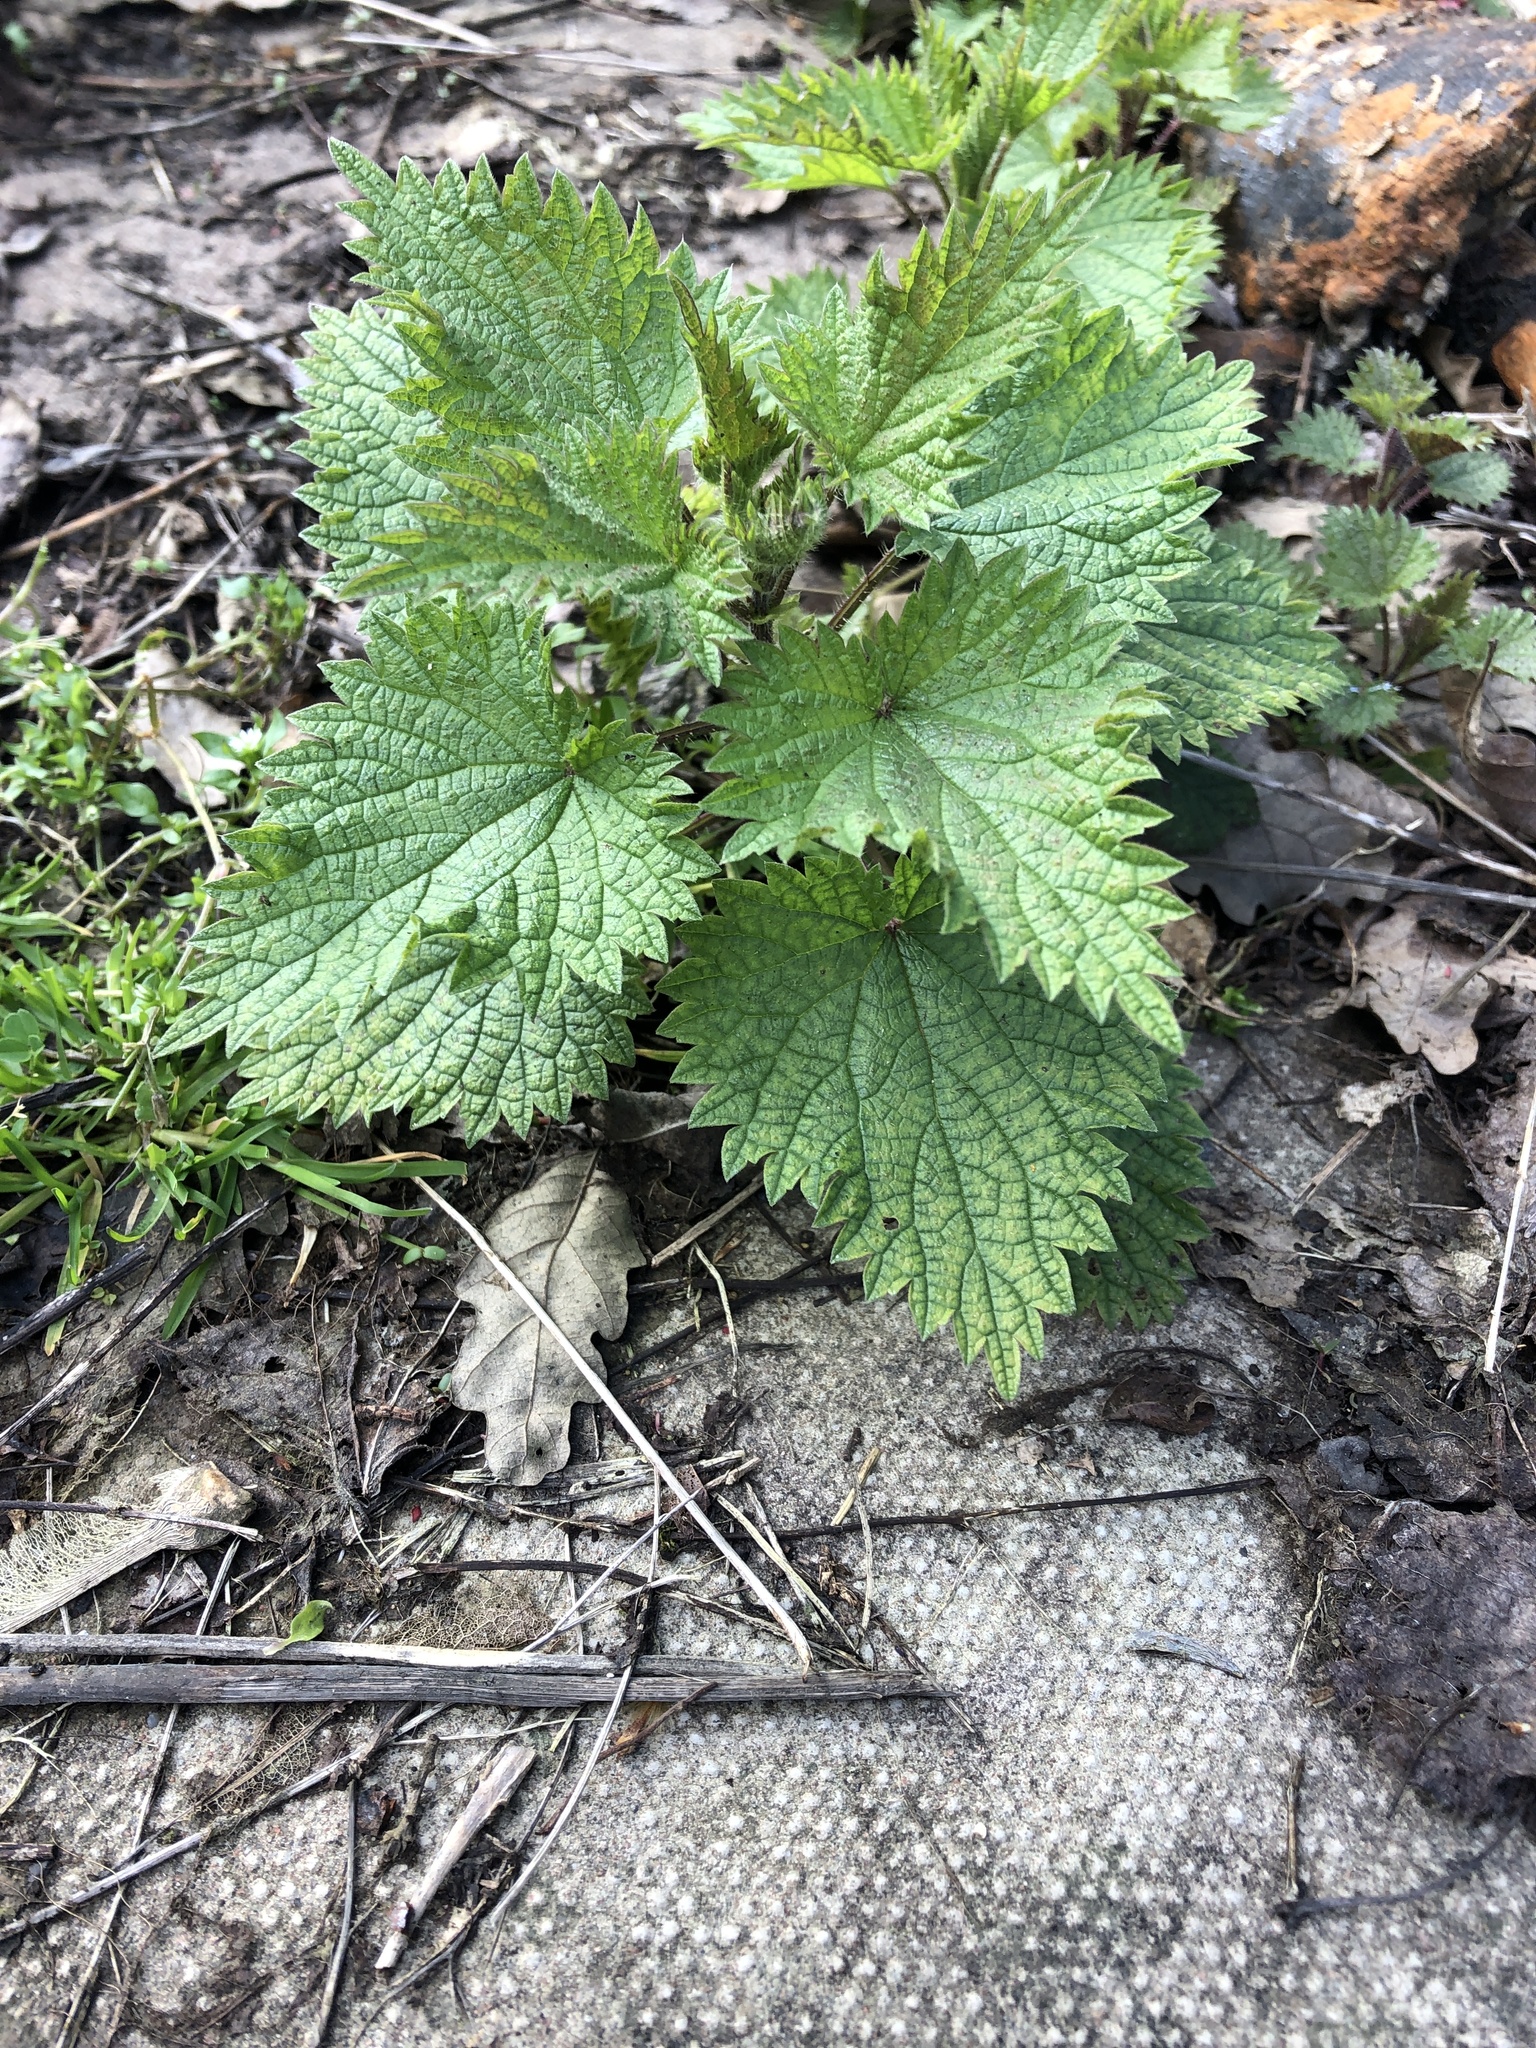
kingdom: Plantae
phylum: Tracheophyta
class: Magnoliopsida
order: Rosales
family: Urticaceae
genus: Urtica
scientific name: Urtica dioica
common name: Common nettle
